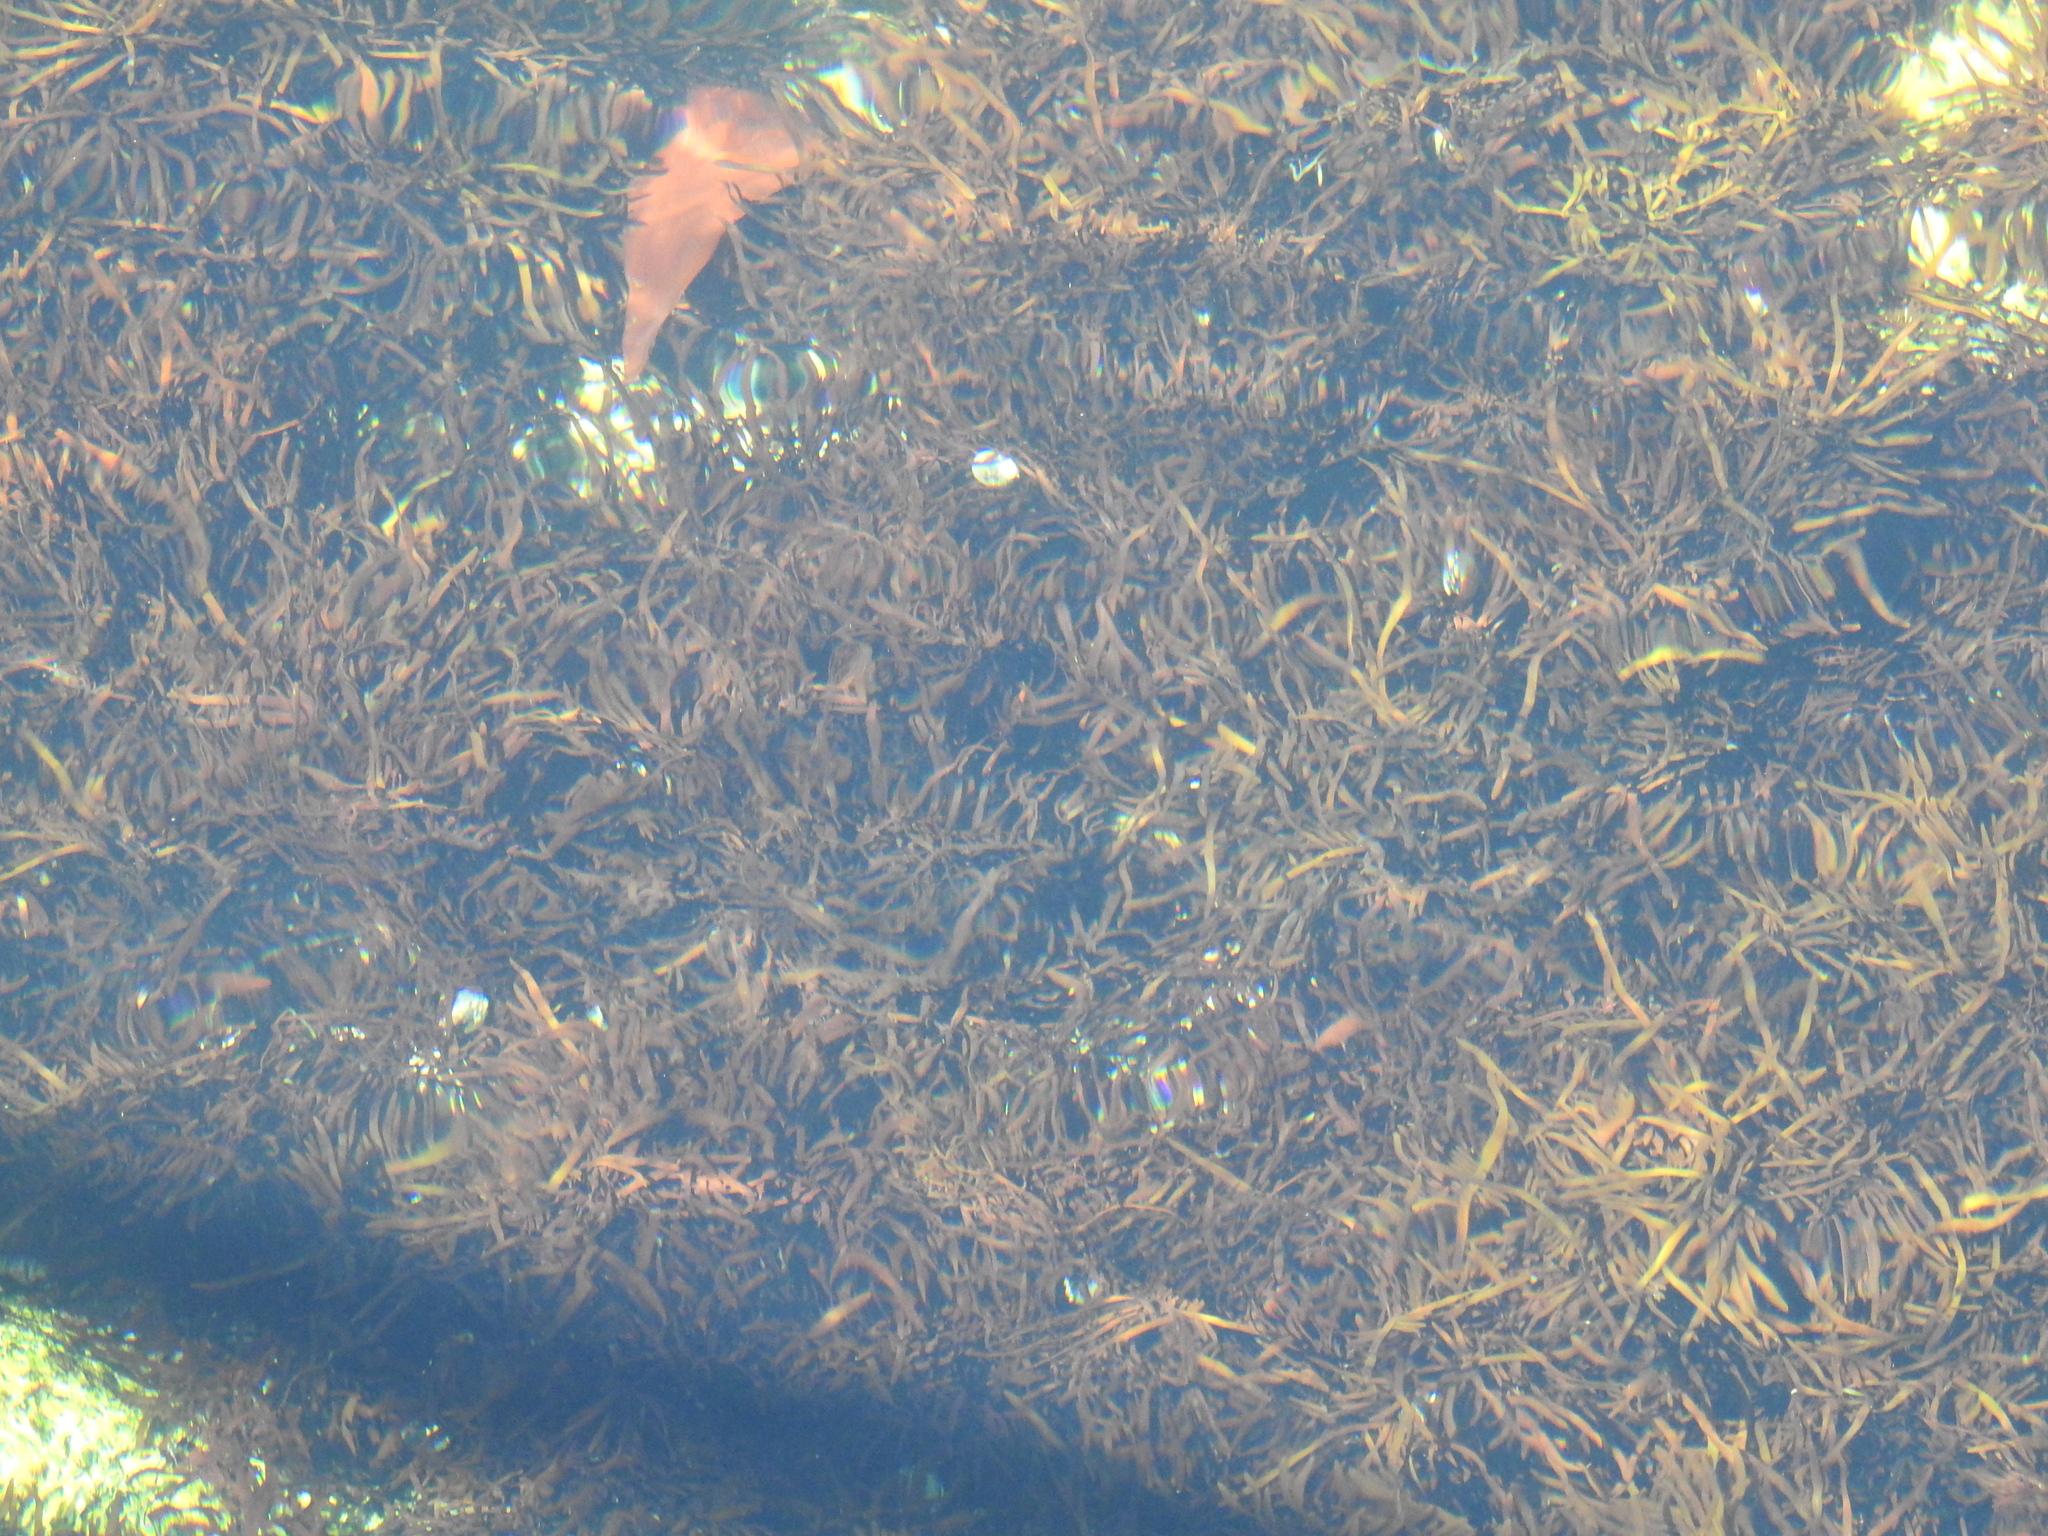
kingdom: Plantae
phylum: Rhodophyta
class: Florideophyceae
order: Halymeniales
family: Halymeniaceae
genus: Grateloupia
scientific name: Grateloupia Prionitis lanceolata
